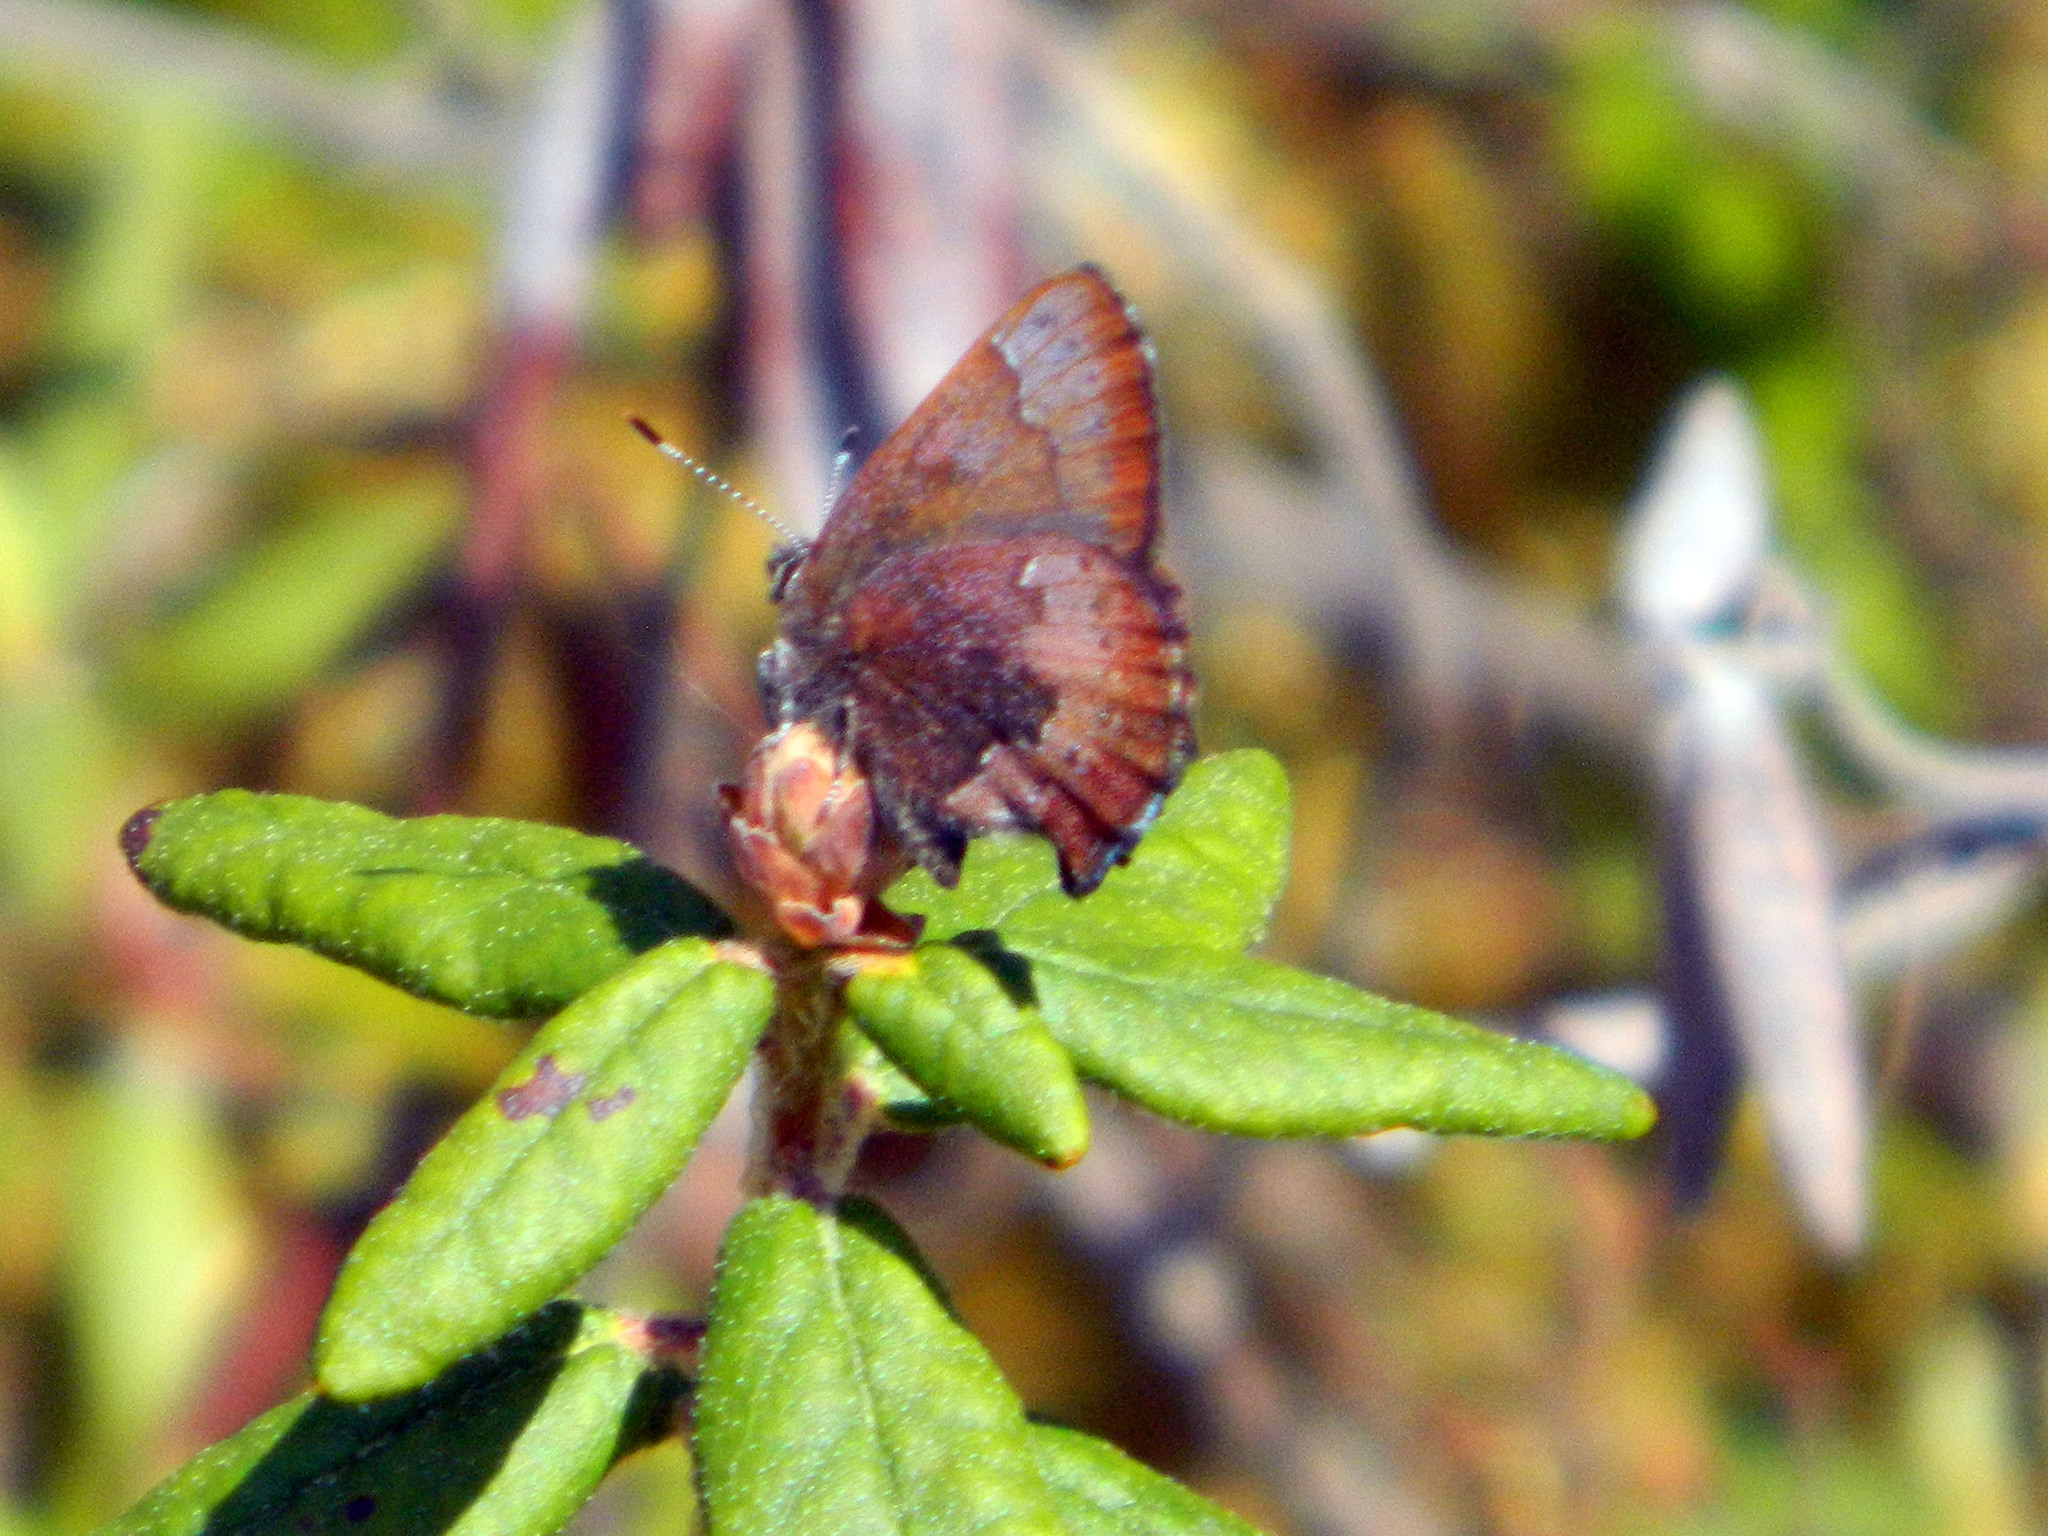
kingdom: Animalia
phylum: Arthropoda
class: Insecta
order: Lepidoptera
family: Lycaenidae
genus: Incisalia
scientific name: Incisalia irioides
